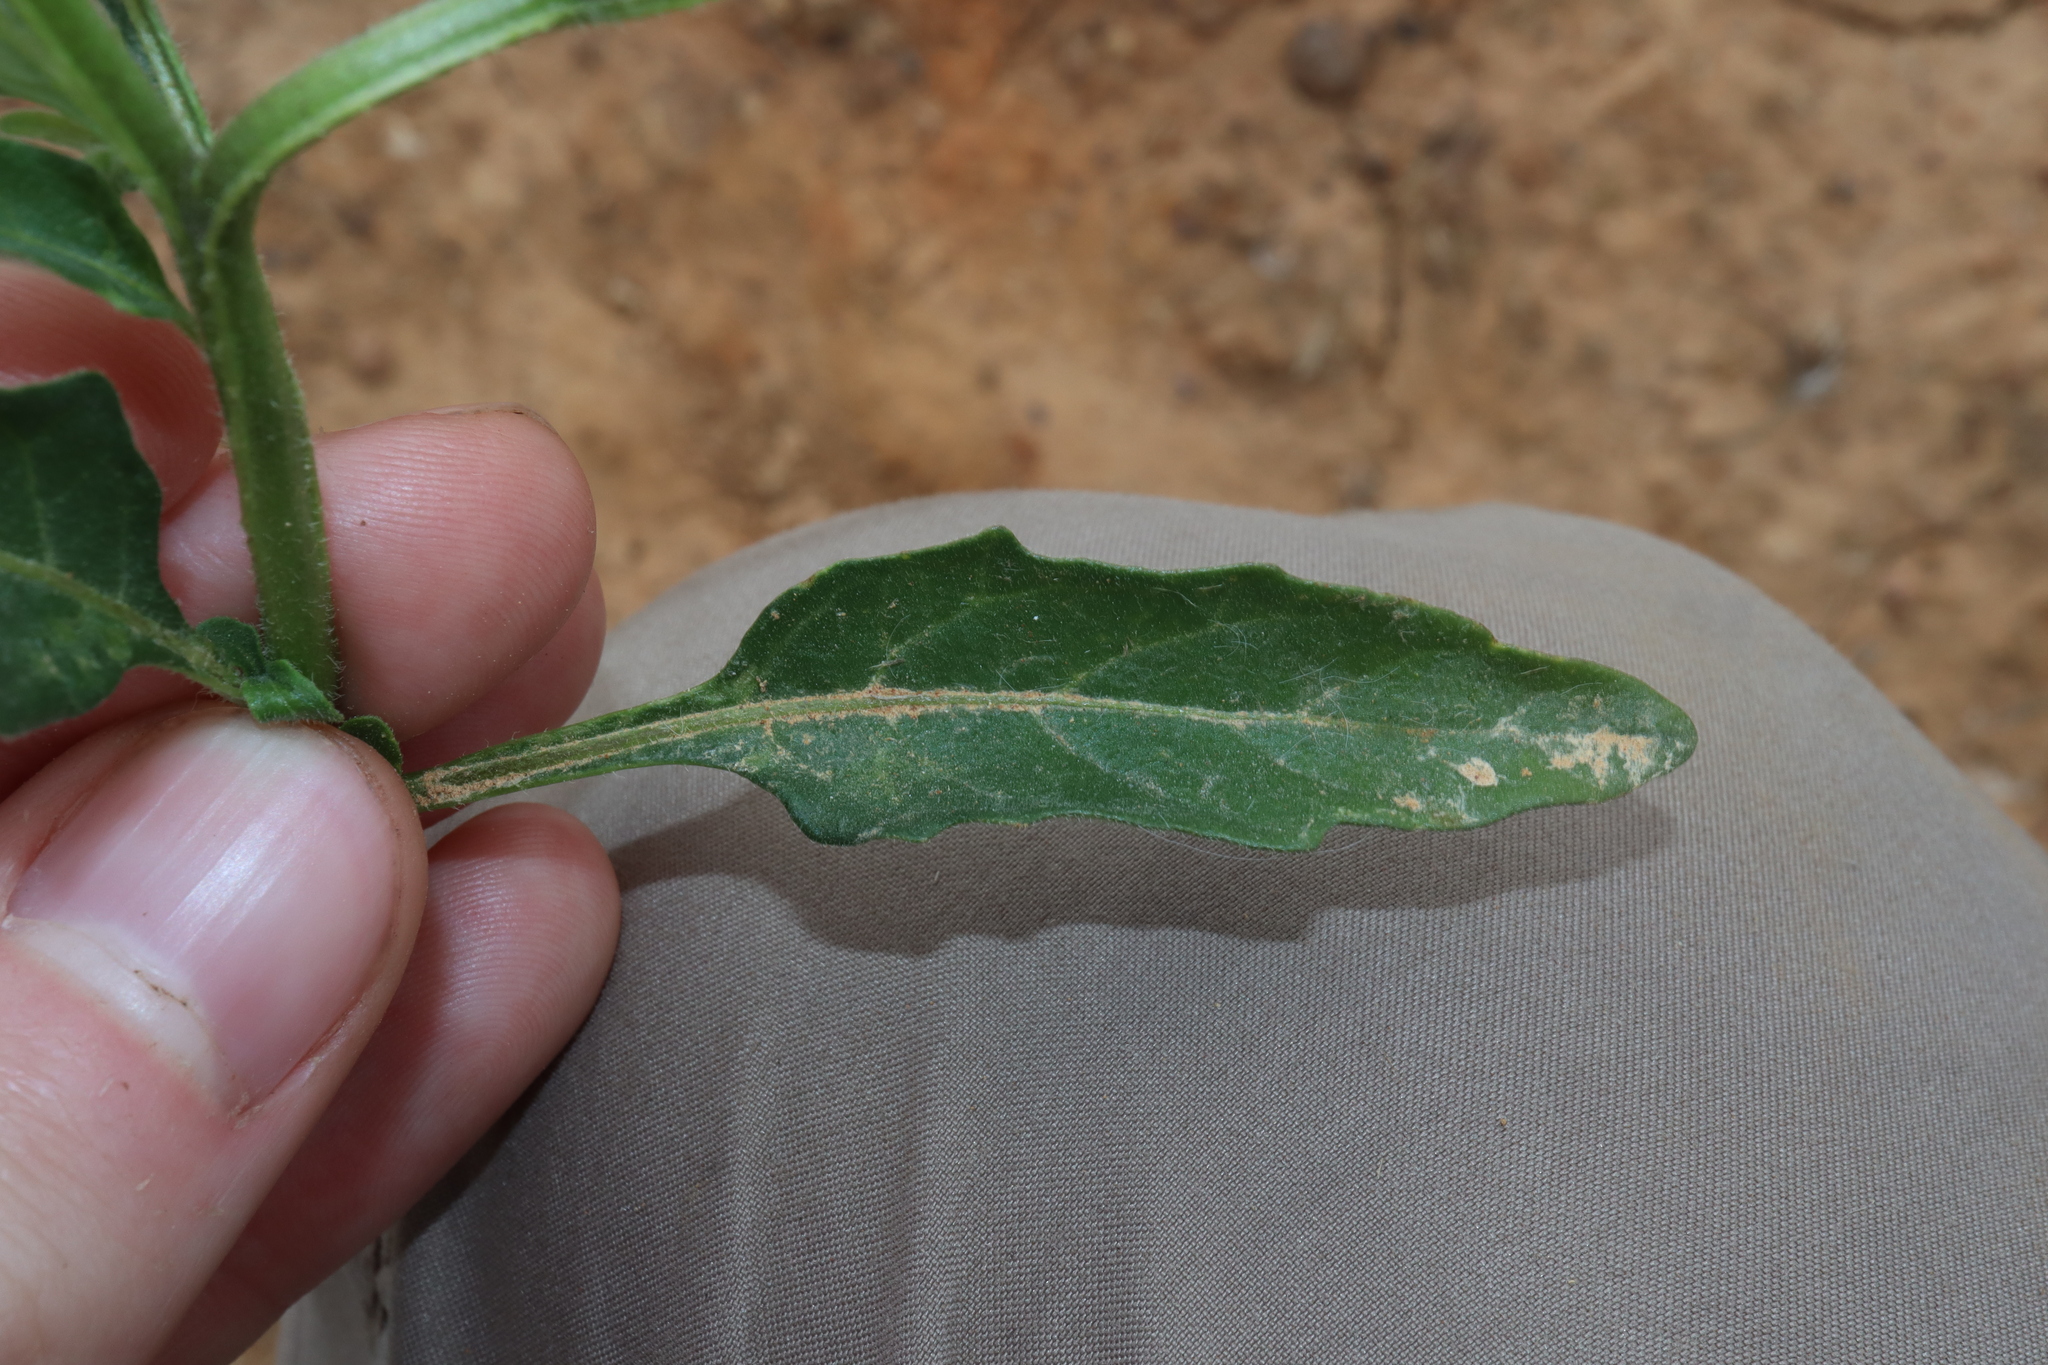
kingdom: Plantae
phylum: Tracheophyta
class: Magnoliopsida
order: Solanales
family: Solanaceae
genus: Solanum
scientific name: Solanum chenopodioides
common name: Tall nightshade
